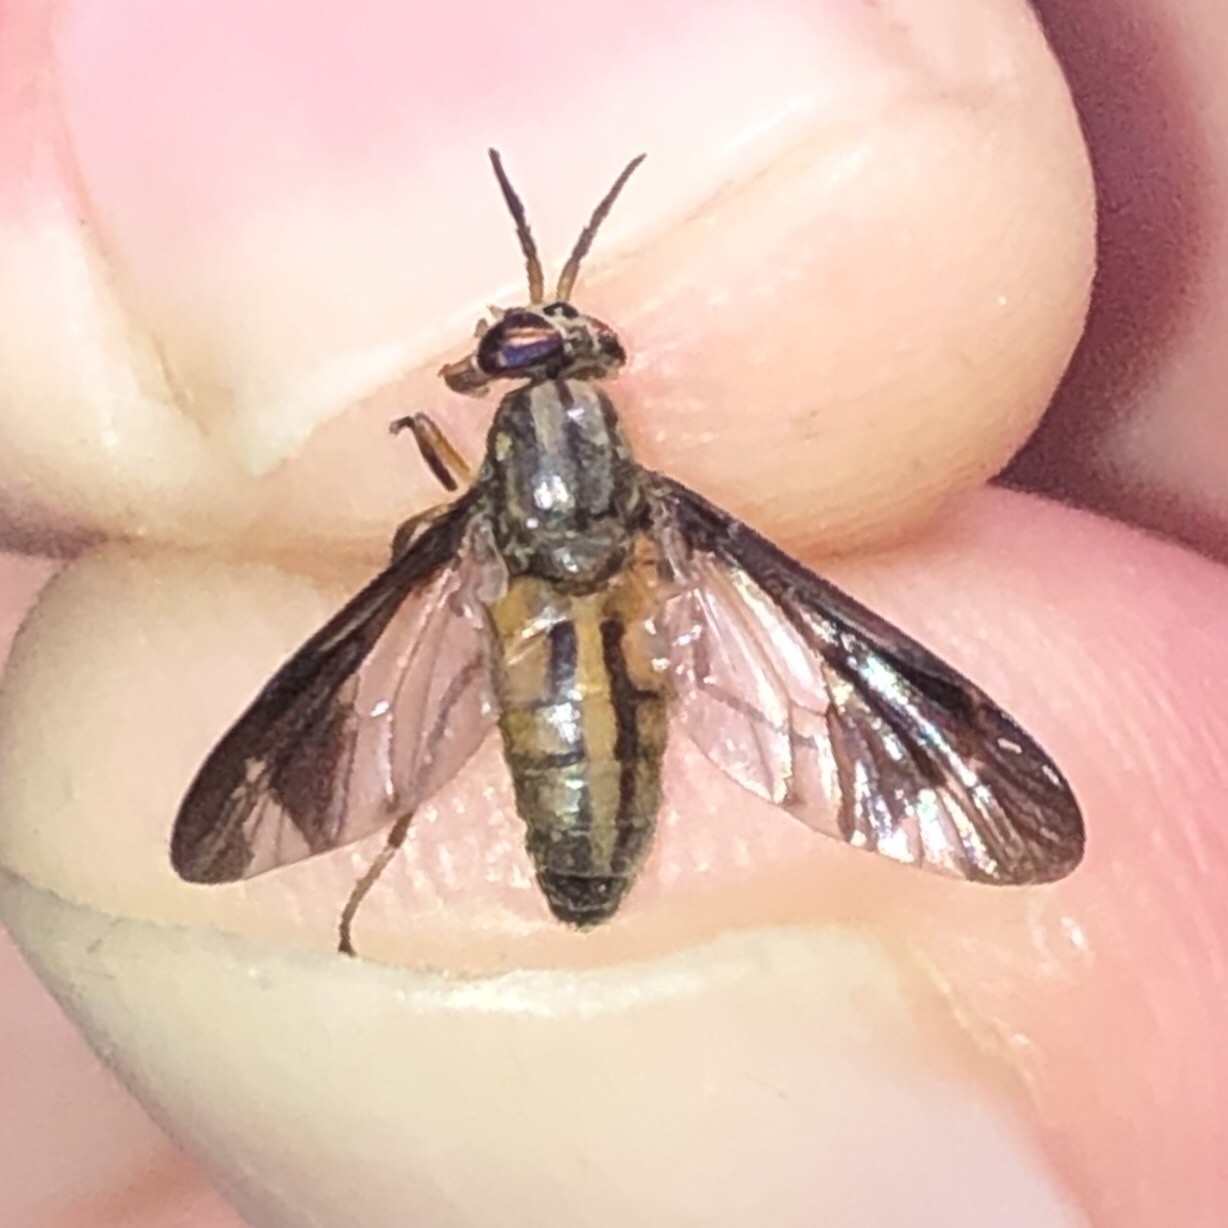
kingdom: Animalia
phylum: Arthropoda
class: Insecta
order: Diptera
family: Tabanidae
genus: Chrysops
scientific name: Chrysops macquarti
